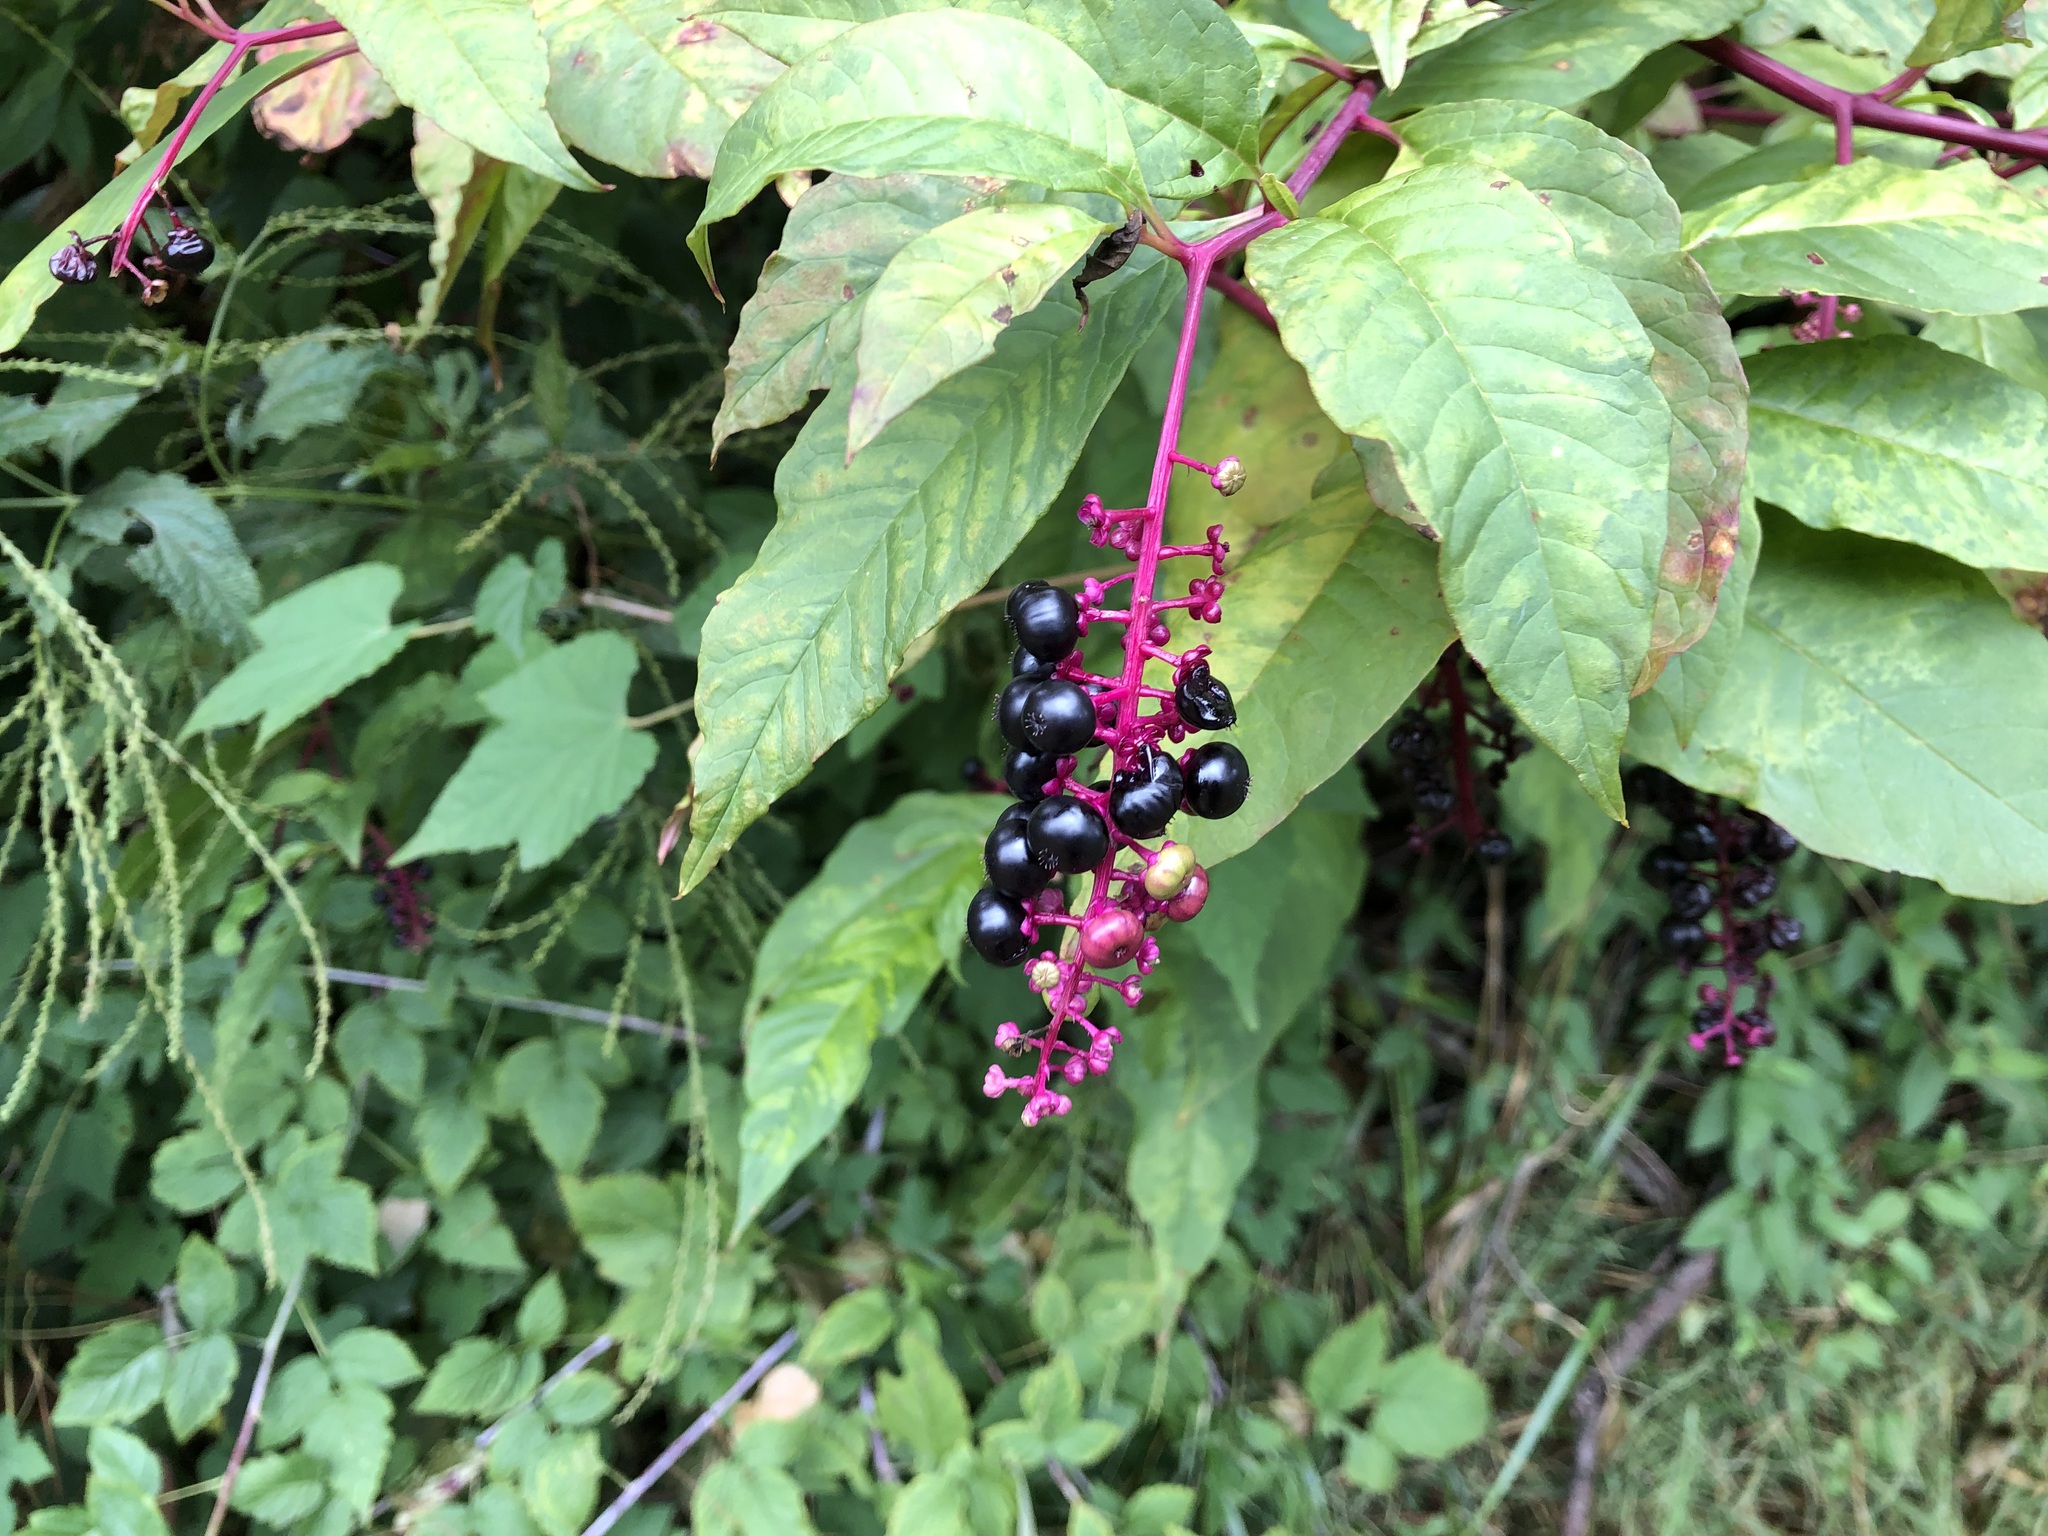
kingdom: Plantae
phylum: Tracheophyta
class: Magnoliopsida
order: Caryophyllales
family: Phytolaccaceae
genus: Phytolacca
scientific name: Phytolacca americana
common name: American pokeweed
